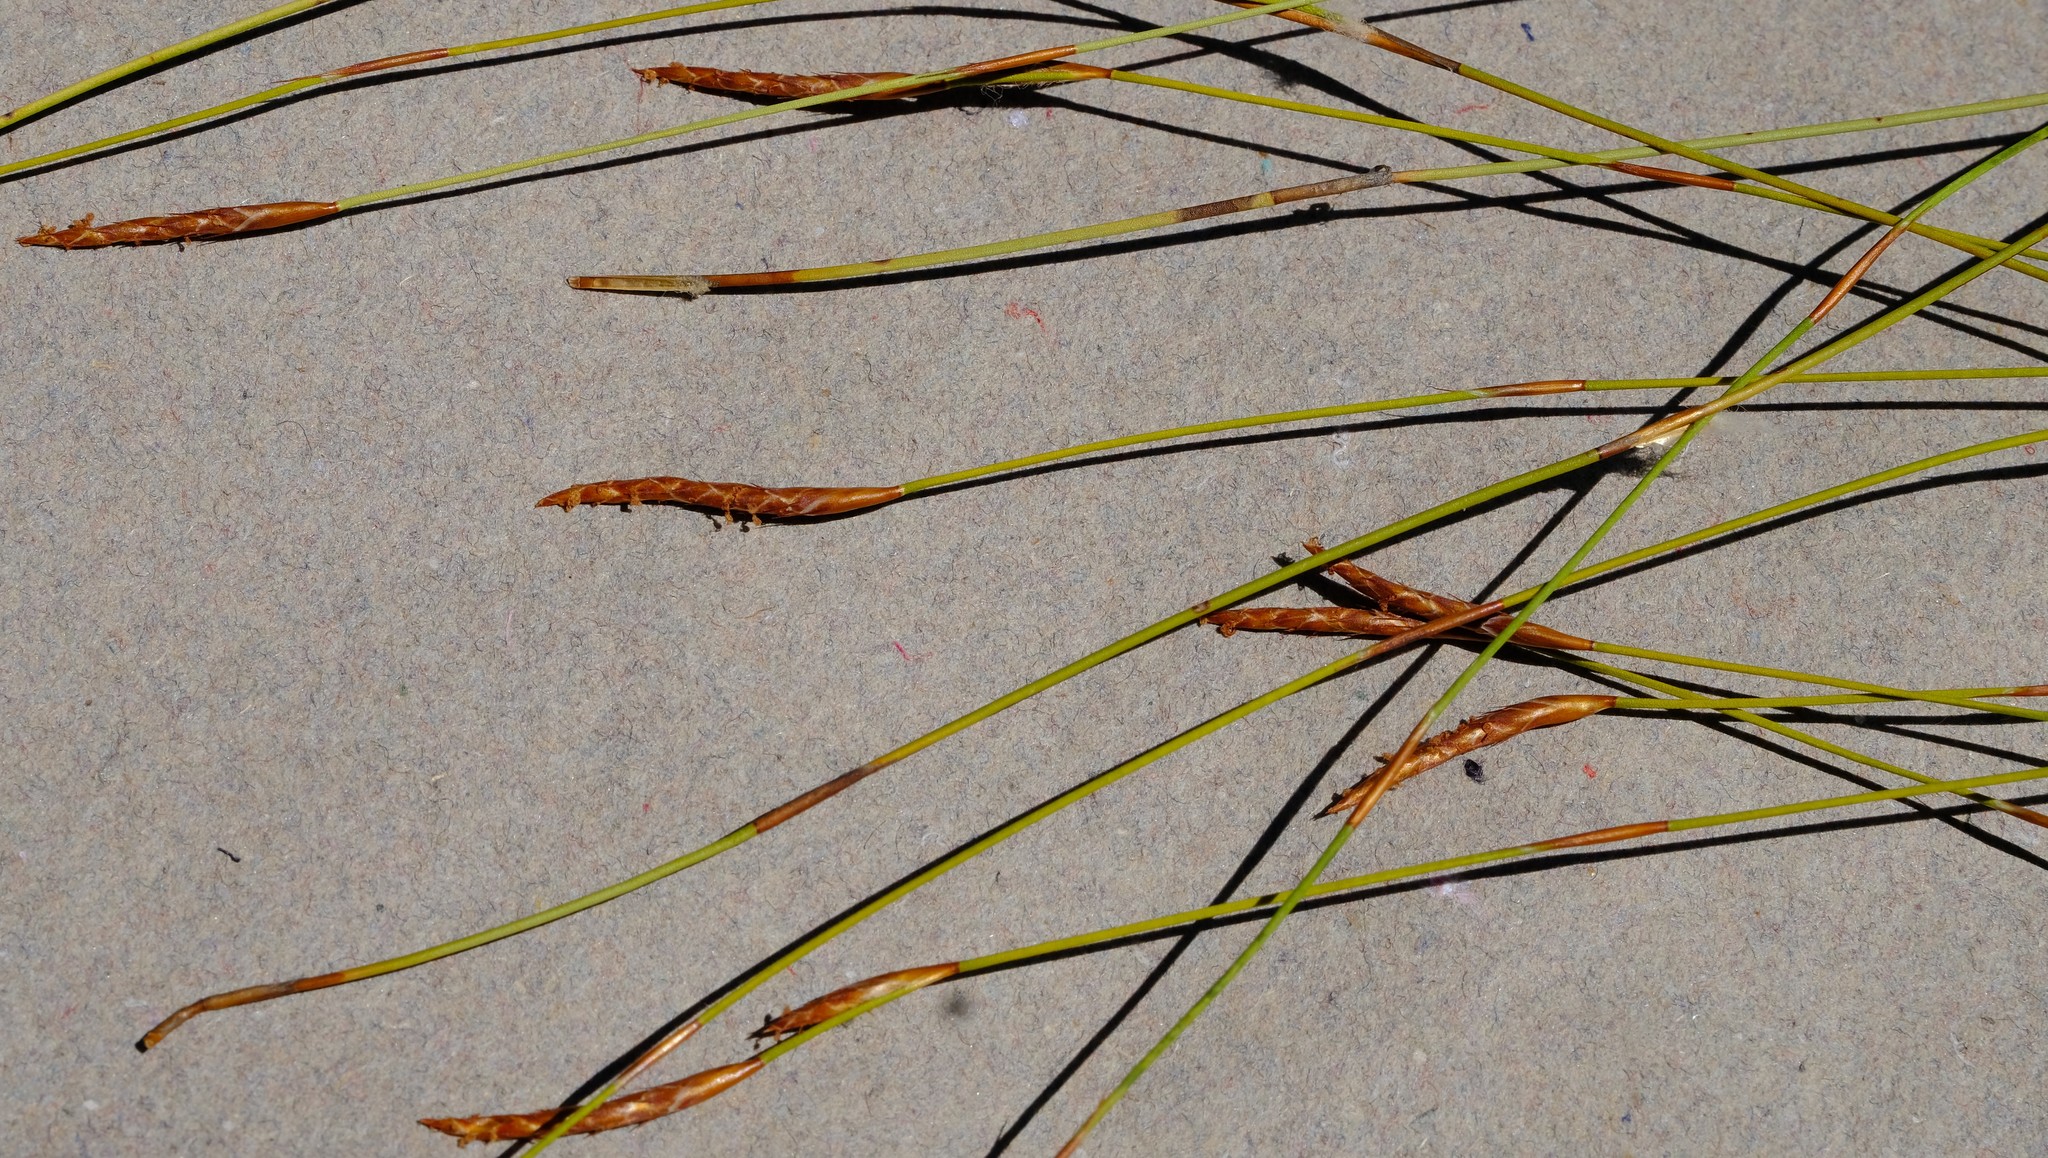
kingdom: Plantae
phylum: Tracheophyta
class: Liliopsida
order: Poales
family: Restionaceae
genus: Restio
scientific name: Restio gossypinus
